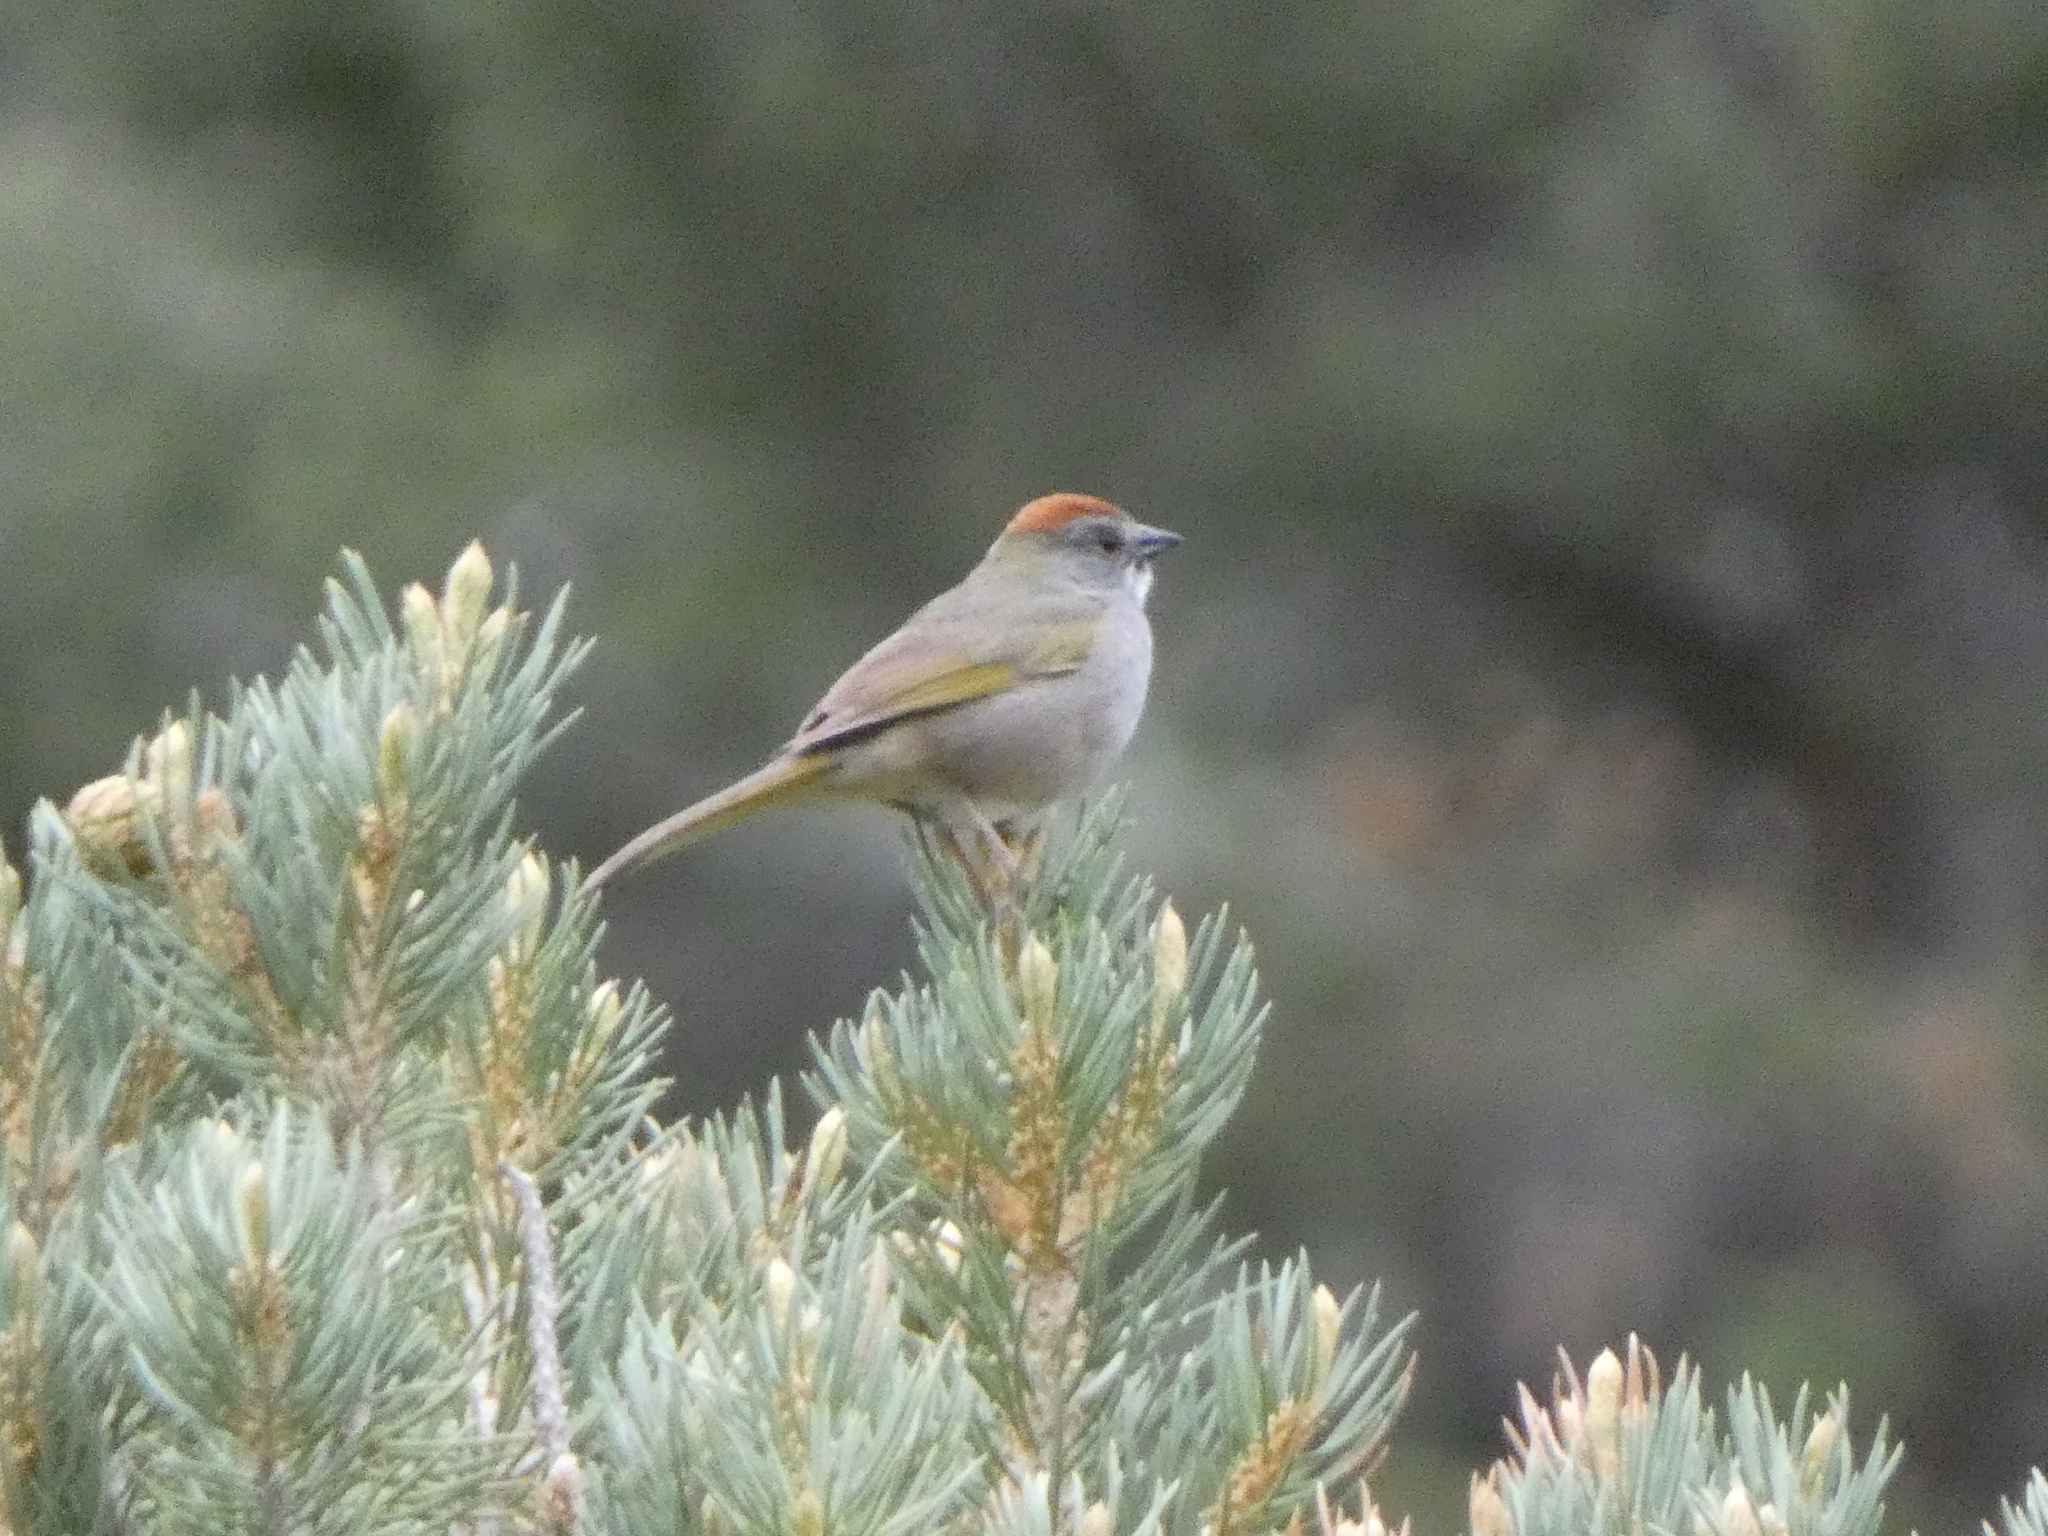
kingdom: Animalia
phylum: Chordata
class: Aves
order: Passeriformes
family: Passerellidae
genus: Pipilo
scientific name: Pipilo chlorurus
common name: Green-tailed towhee
